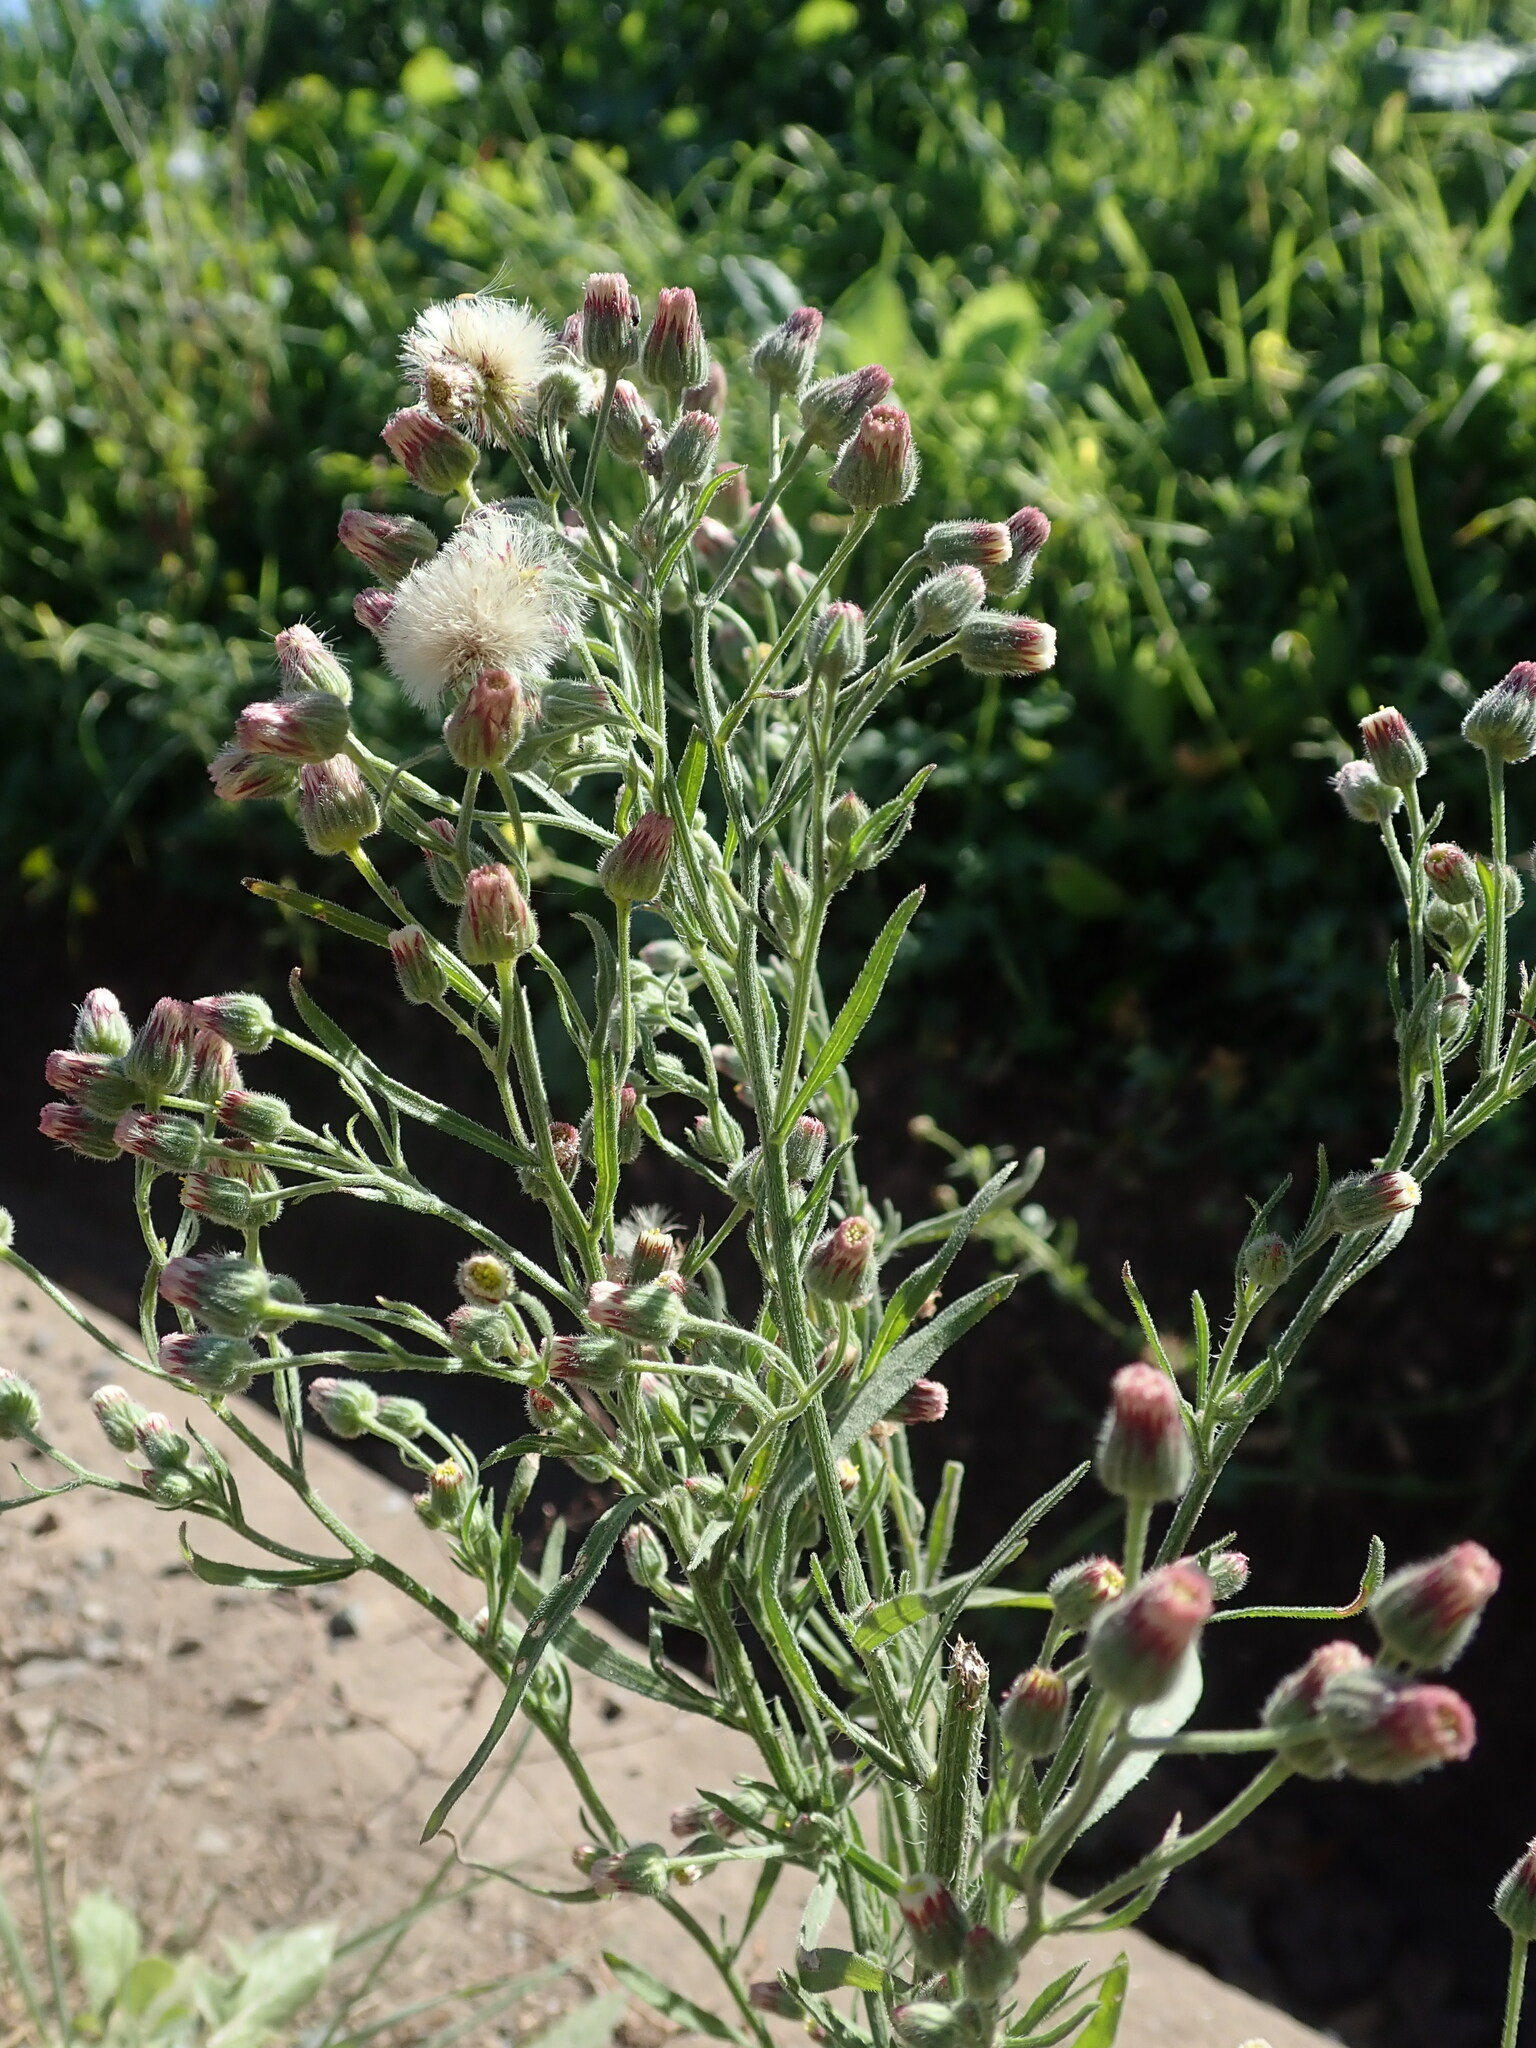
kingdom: Plantae
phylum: Tracheophyta
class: Magnoliopsida
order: Asterales
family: Asteraceae
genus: Erigeron
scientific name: Erigeron bonariensis
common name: Argentine fleabane
